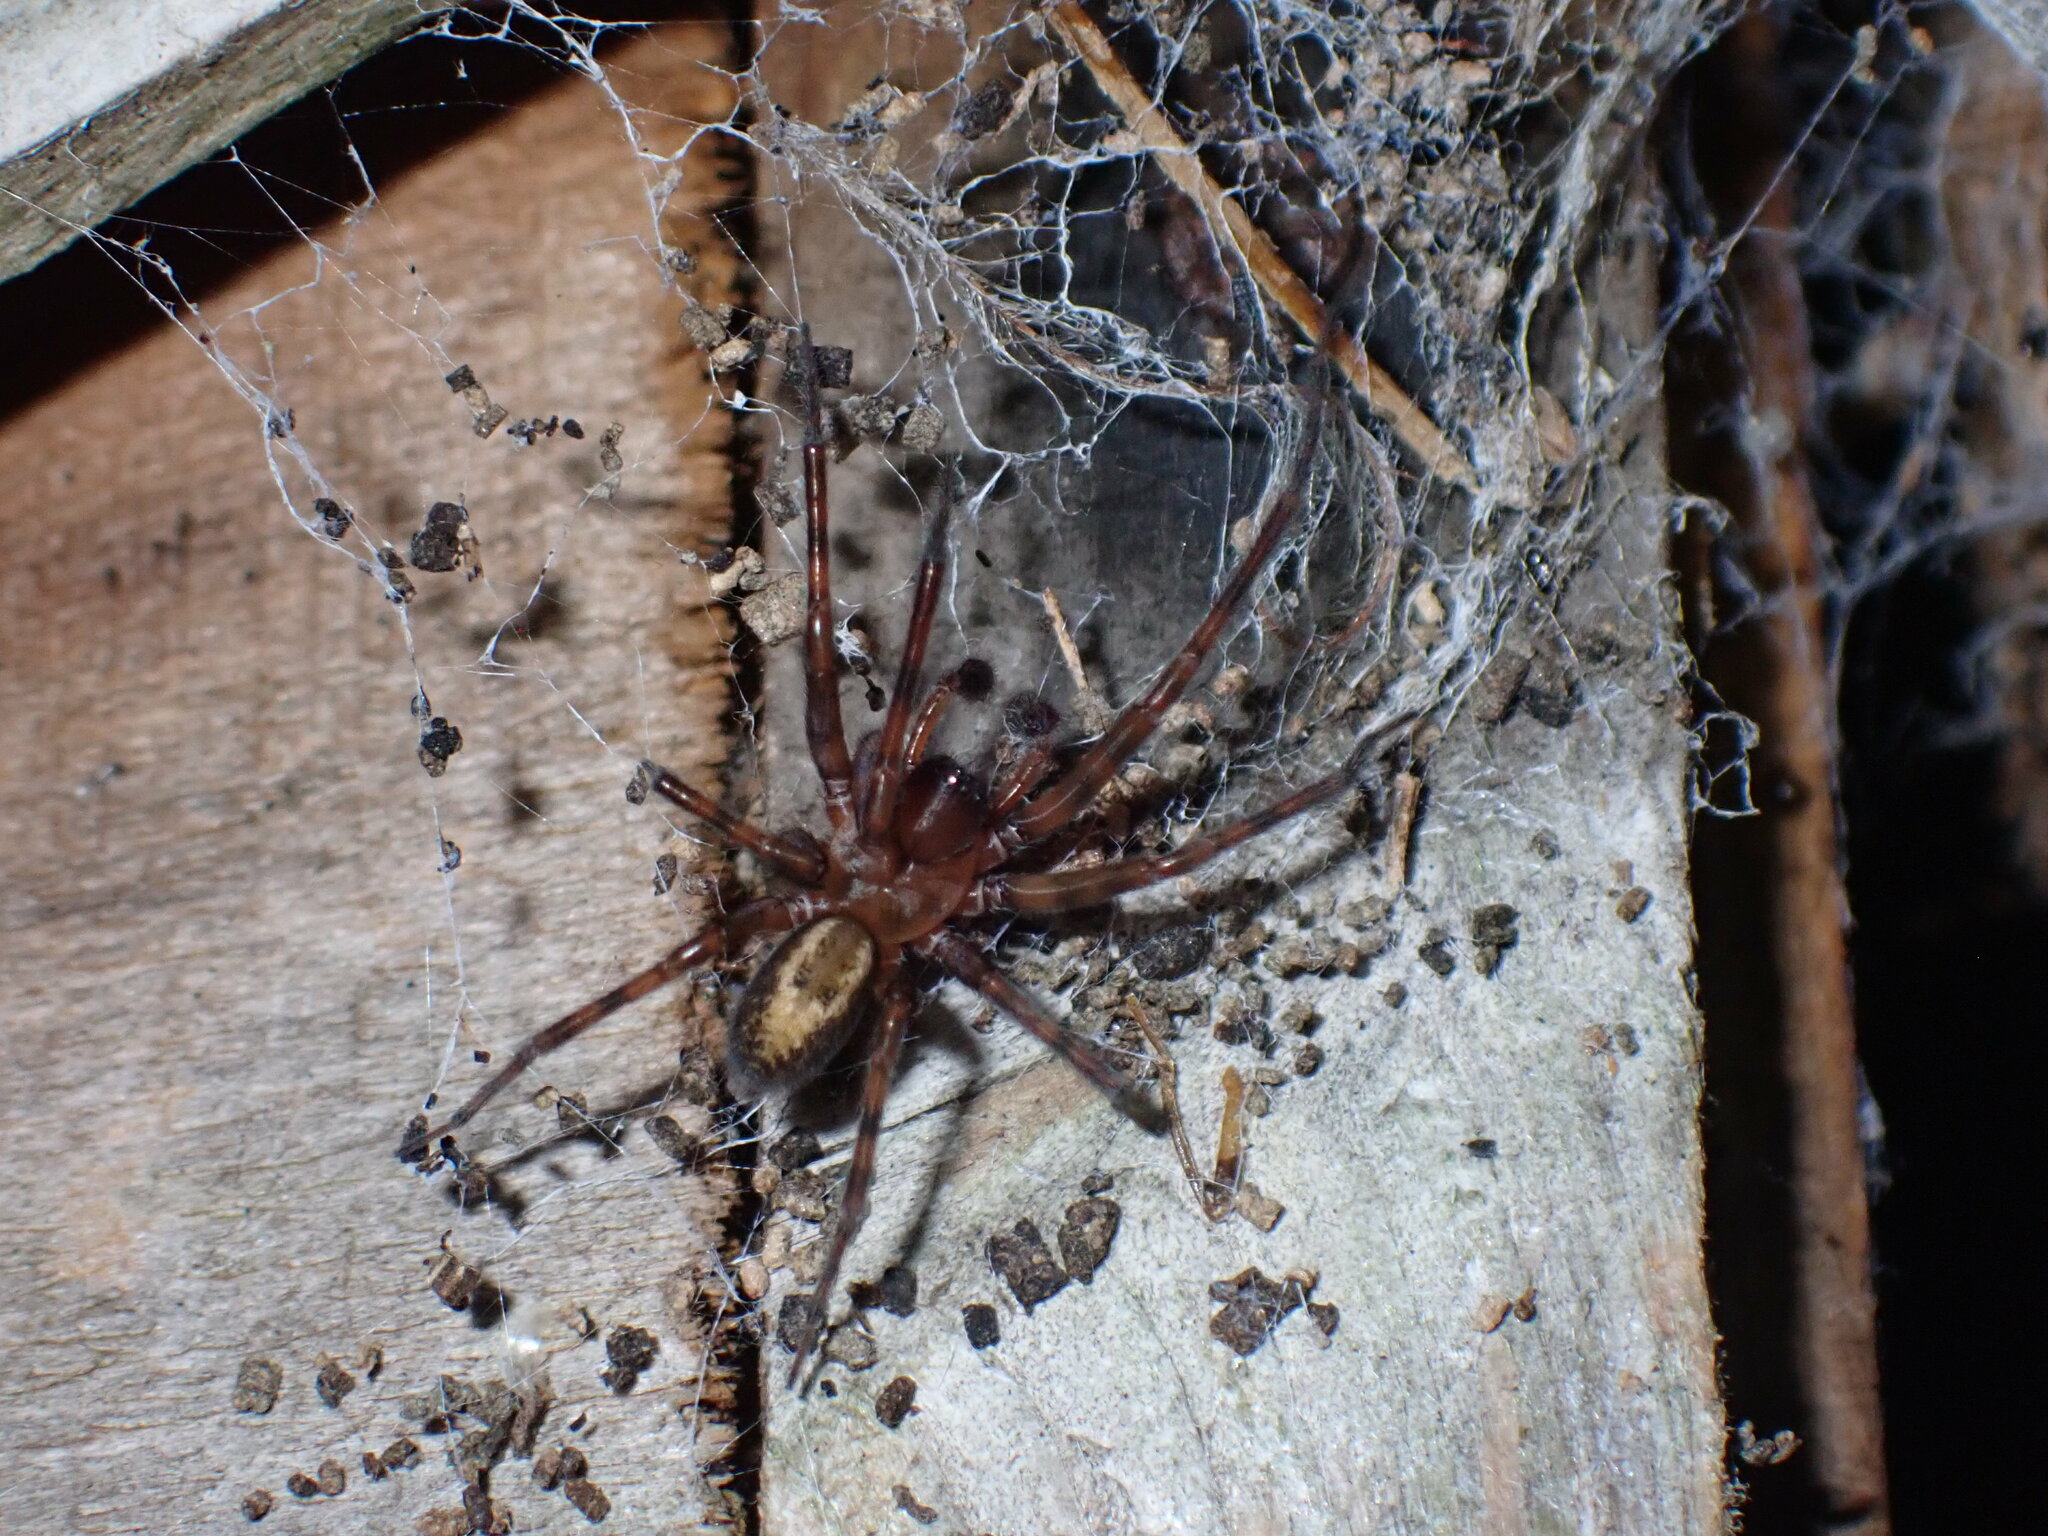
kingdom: Animalia
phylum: Arthropoda
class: Arachnida
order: Araneae
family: Amaurobiidae
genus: Amaurobius
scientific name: Amaurobius similis
